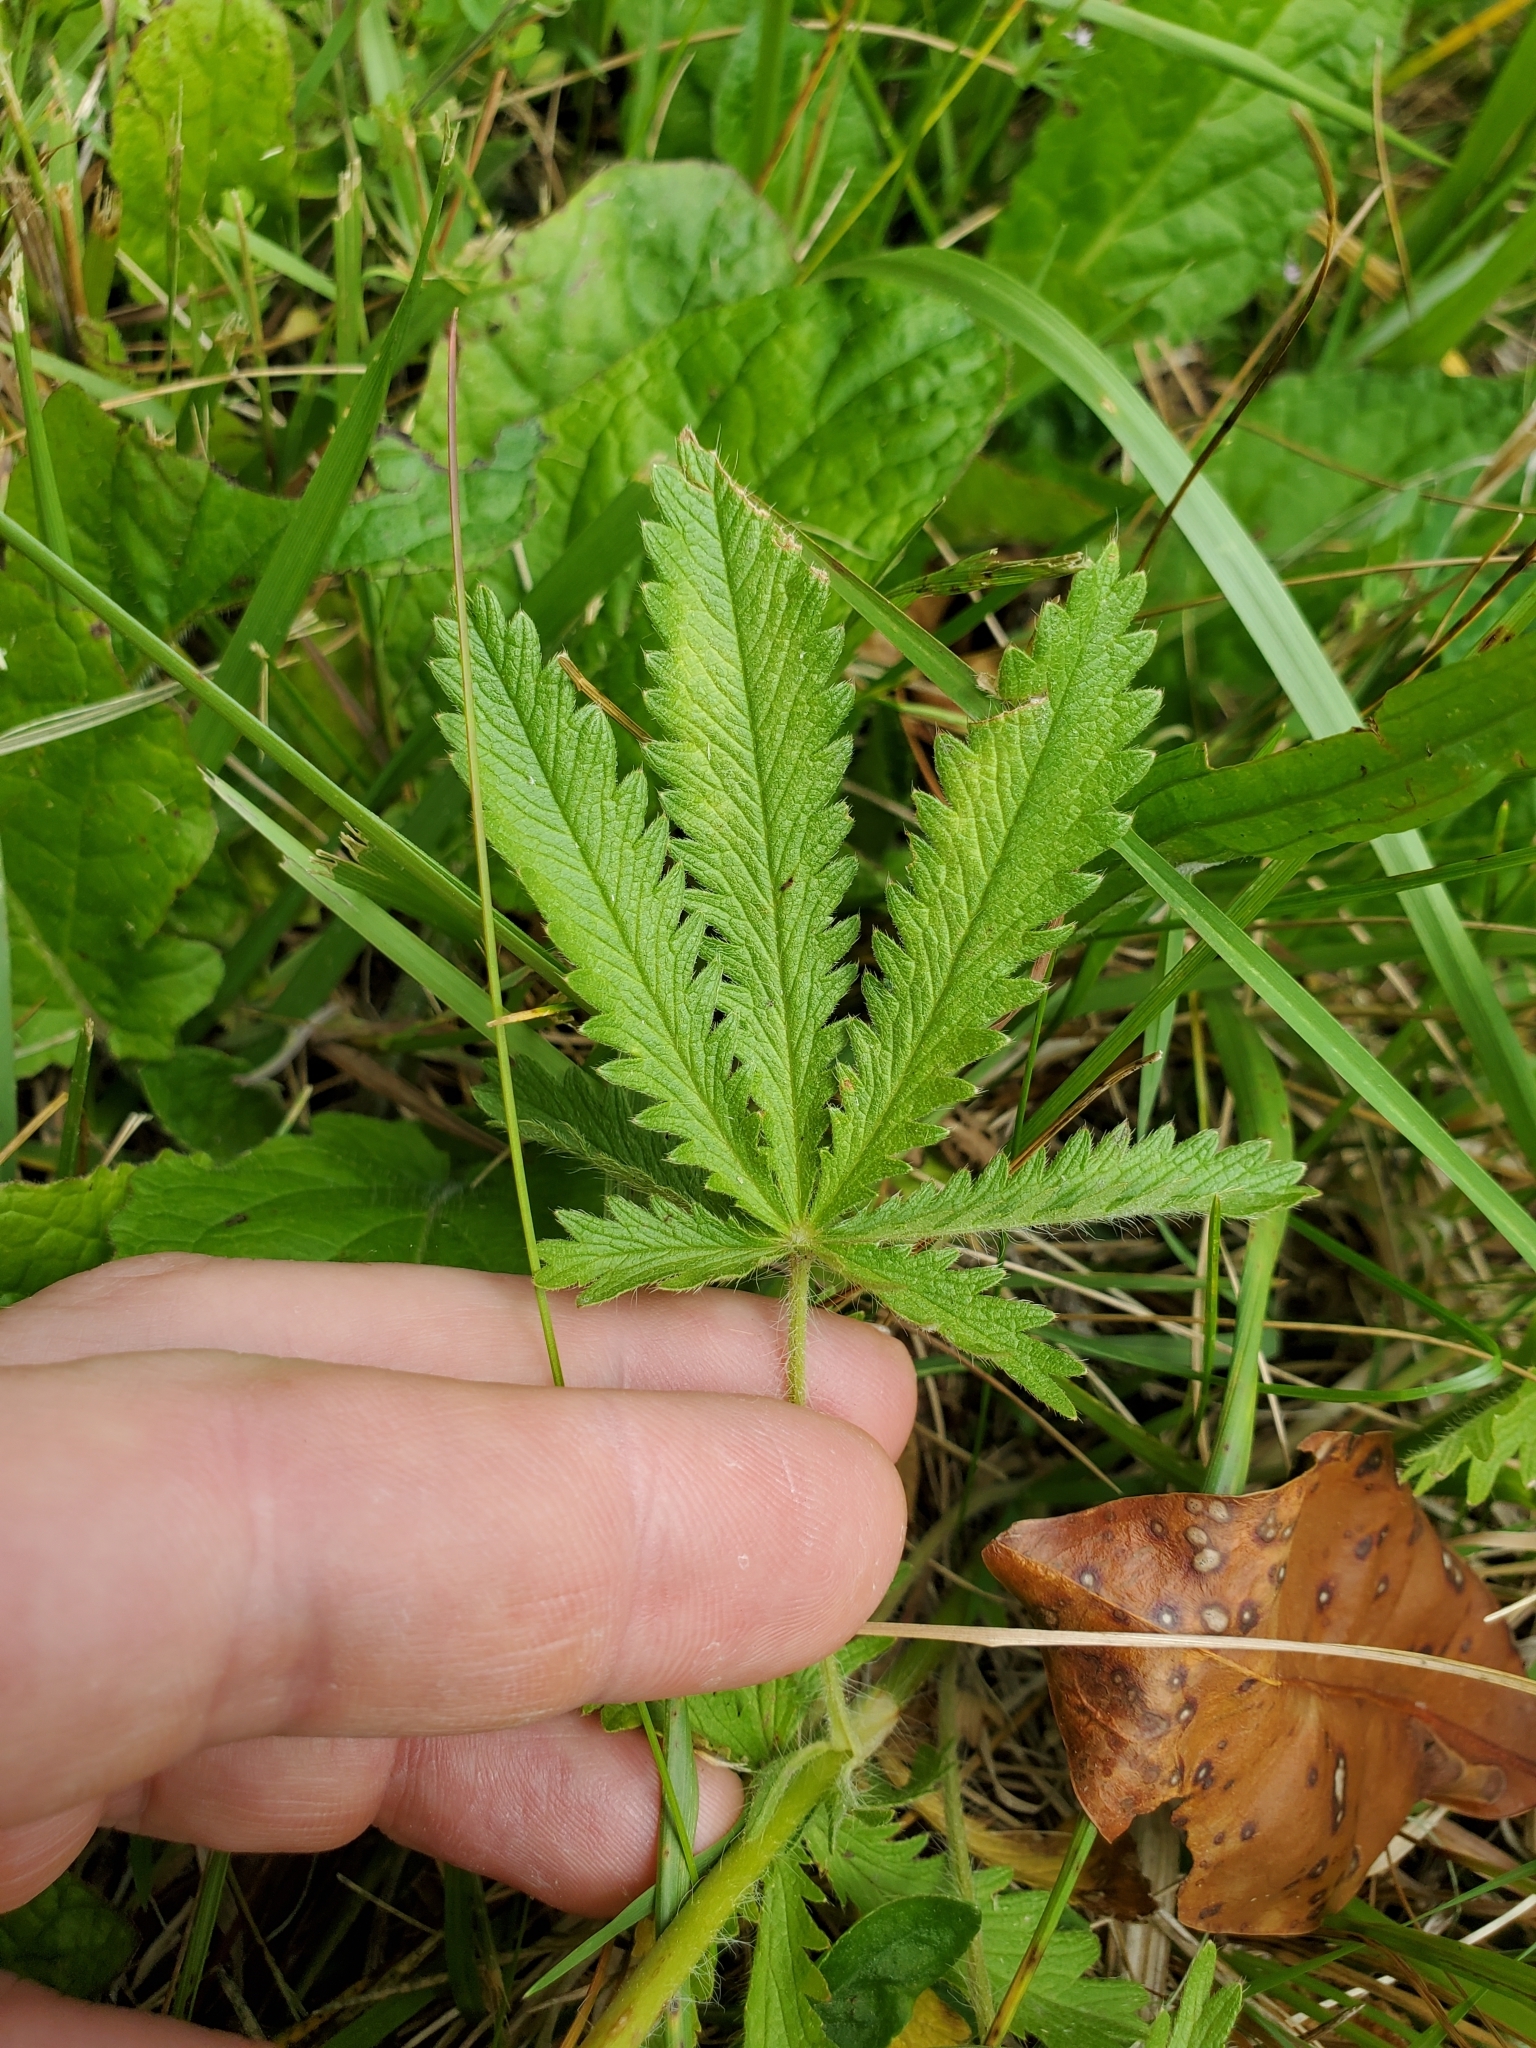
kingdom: Plantae
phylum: Tracheophyta
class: Magnoliopsida
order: Rosales
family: Rosaceae
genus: Potentilla
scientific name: Potentilla recta
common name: Sulphur cinquefoil
